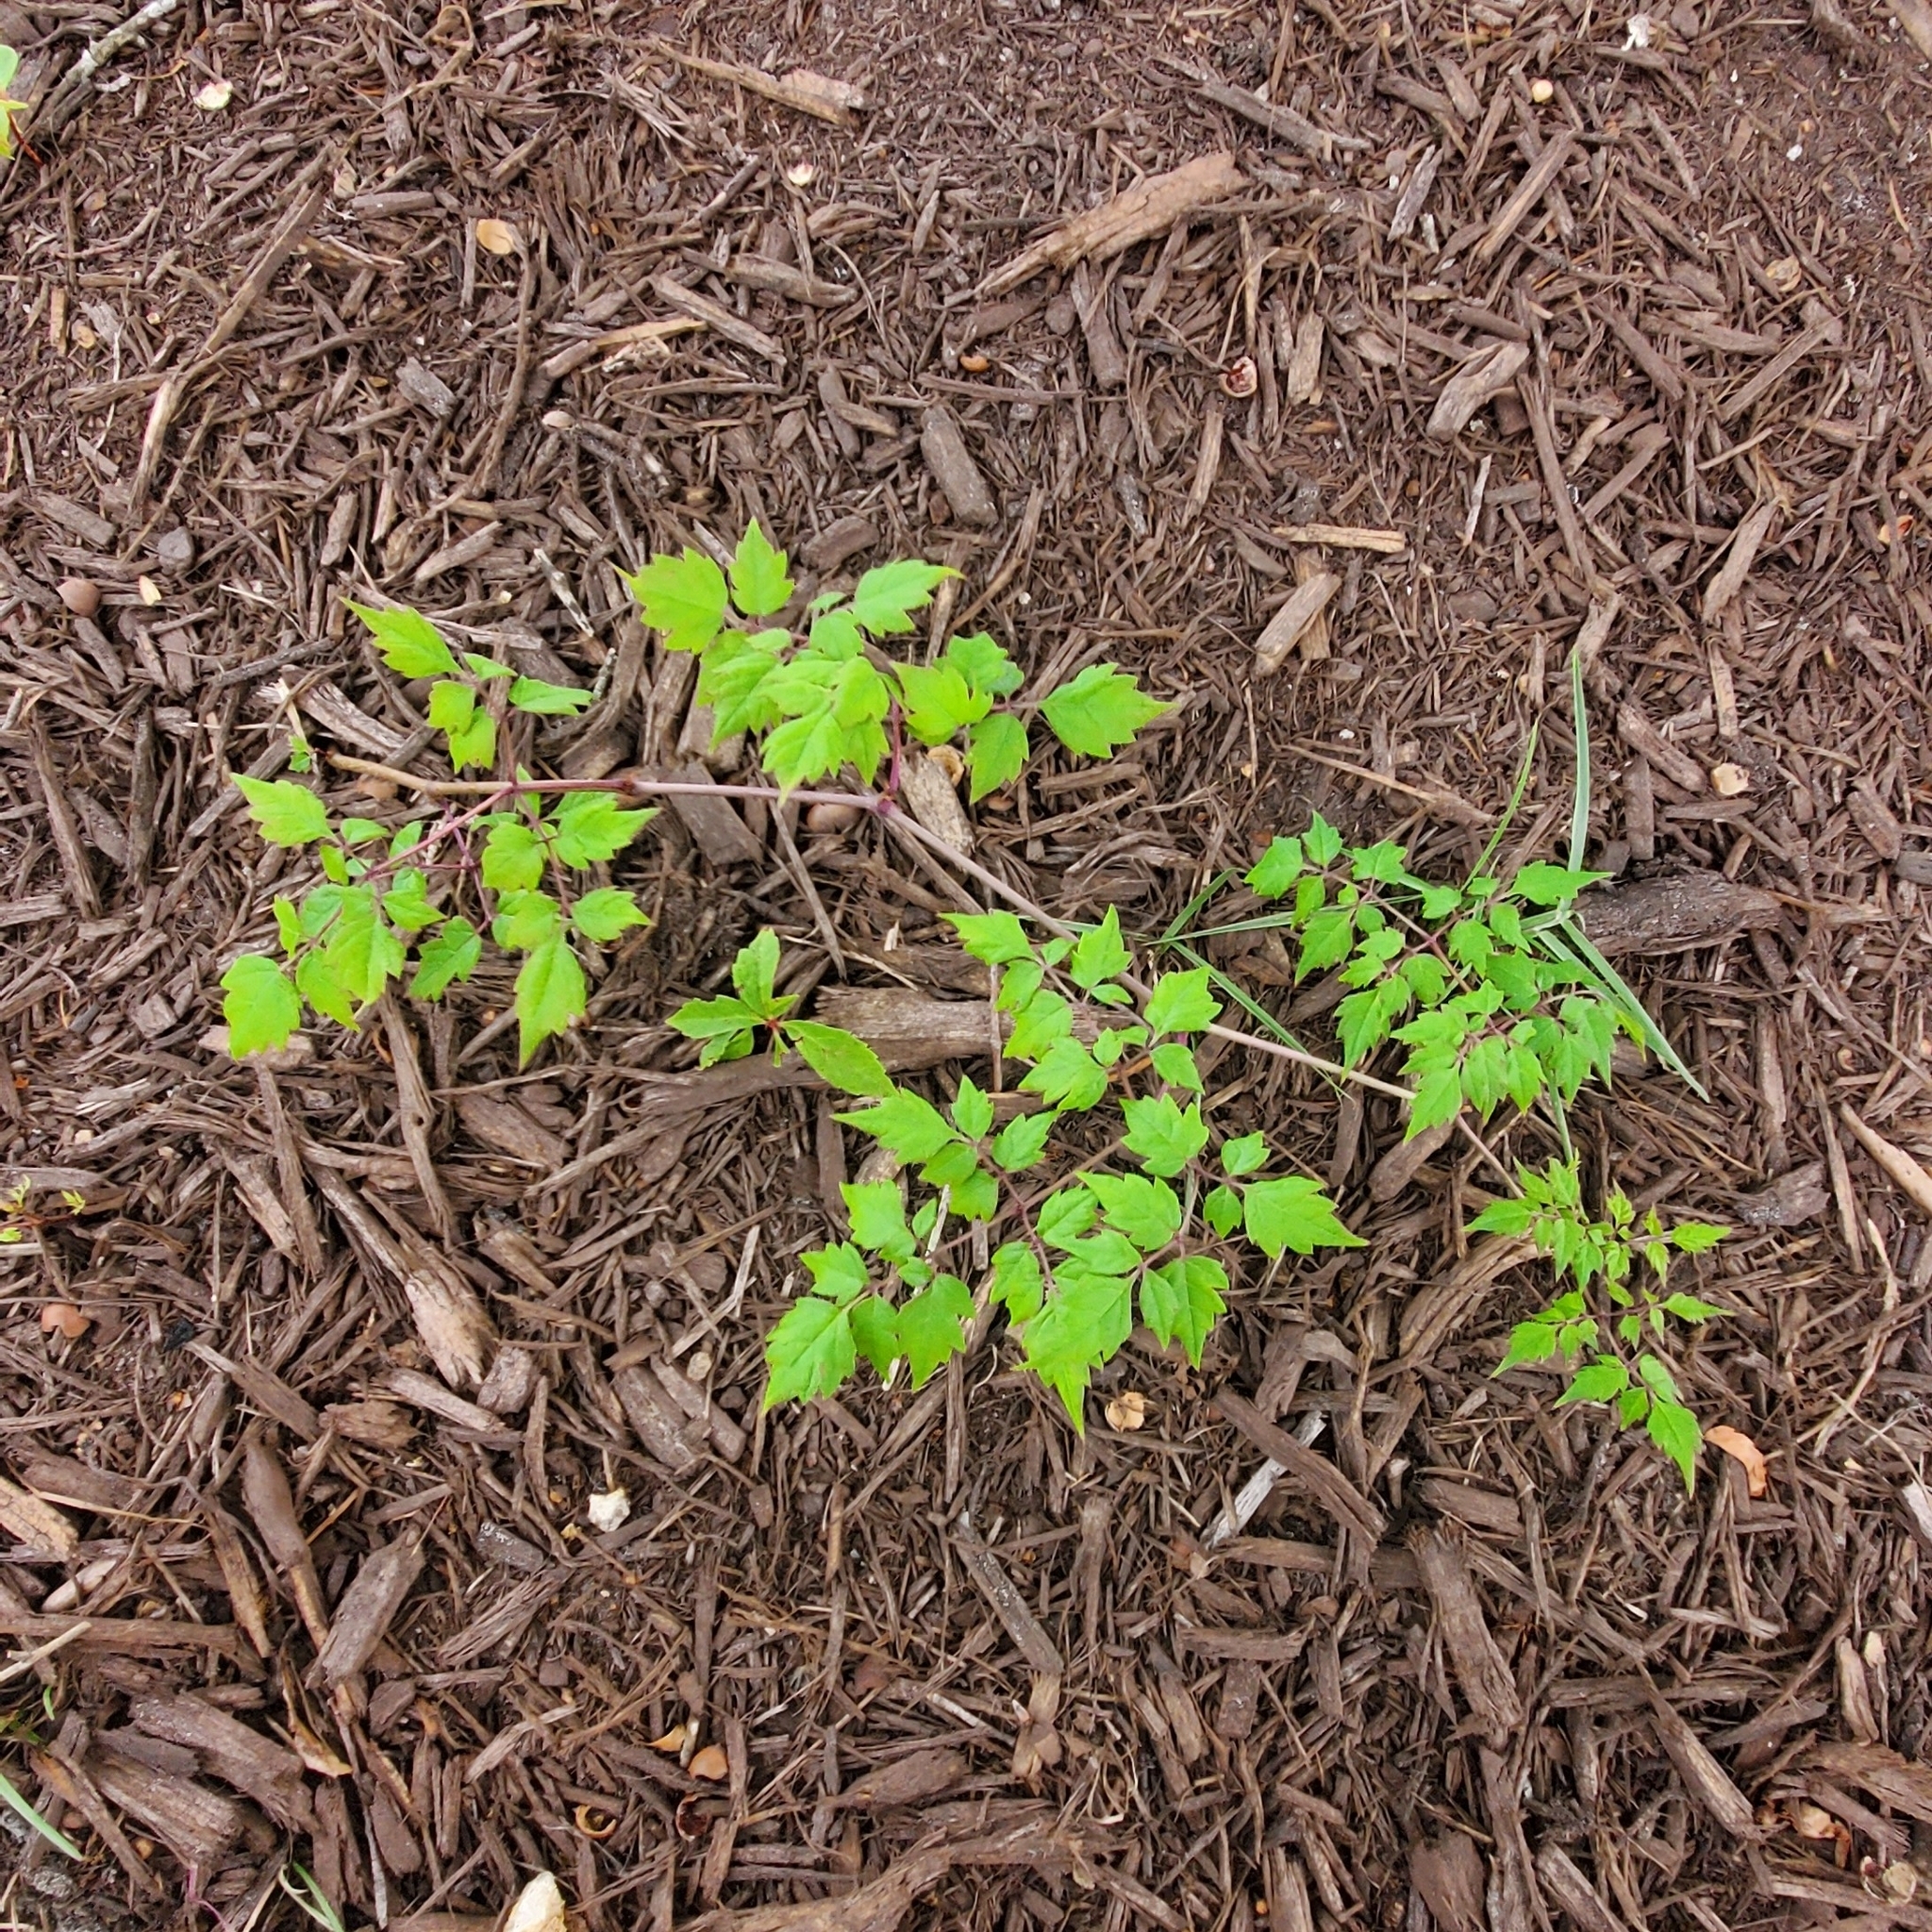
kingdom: Plantae
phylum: Tracheophyta
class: Magnoliopsida
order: Vitales
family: Vitaceae
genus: Nekemias
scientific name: Nekemias arborea
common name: Peppervine
